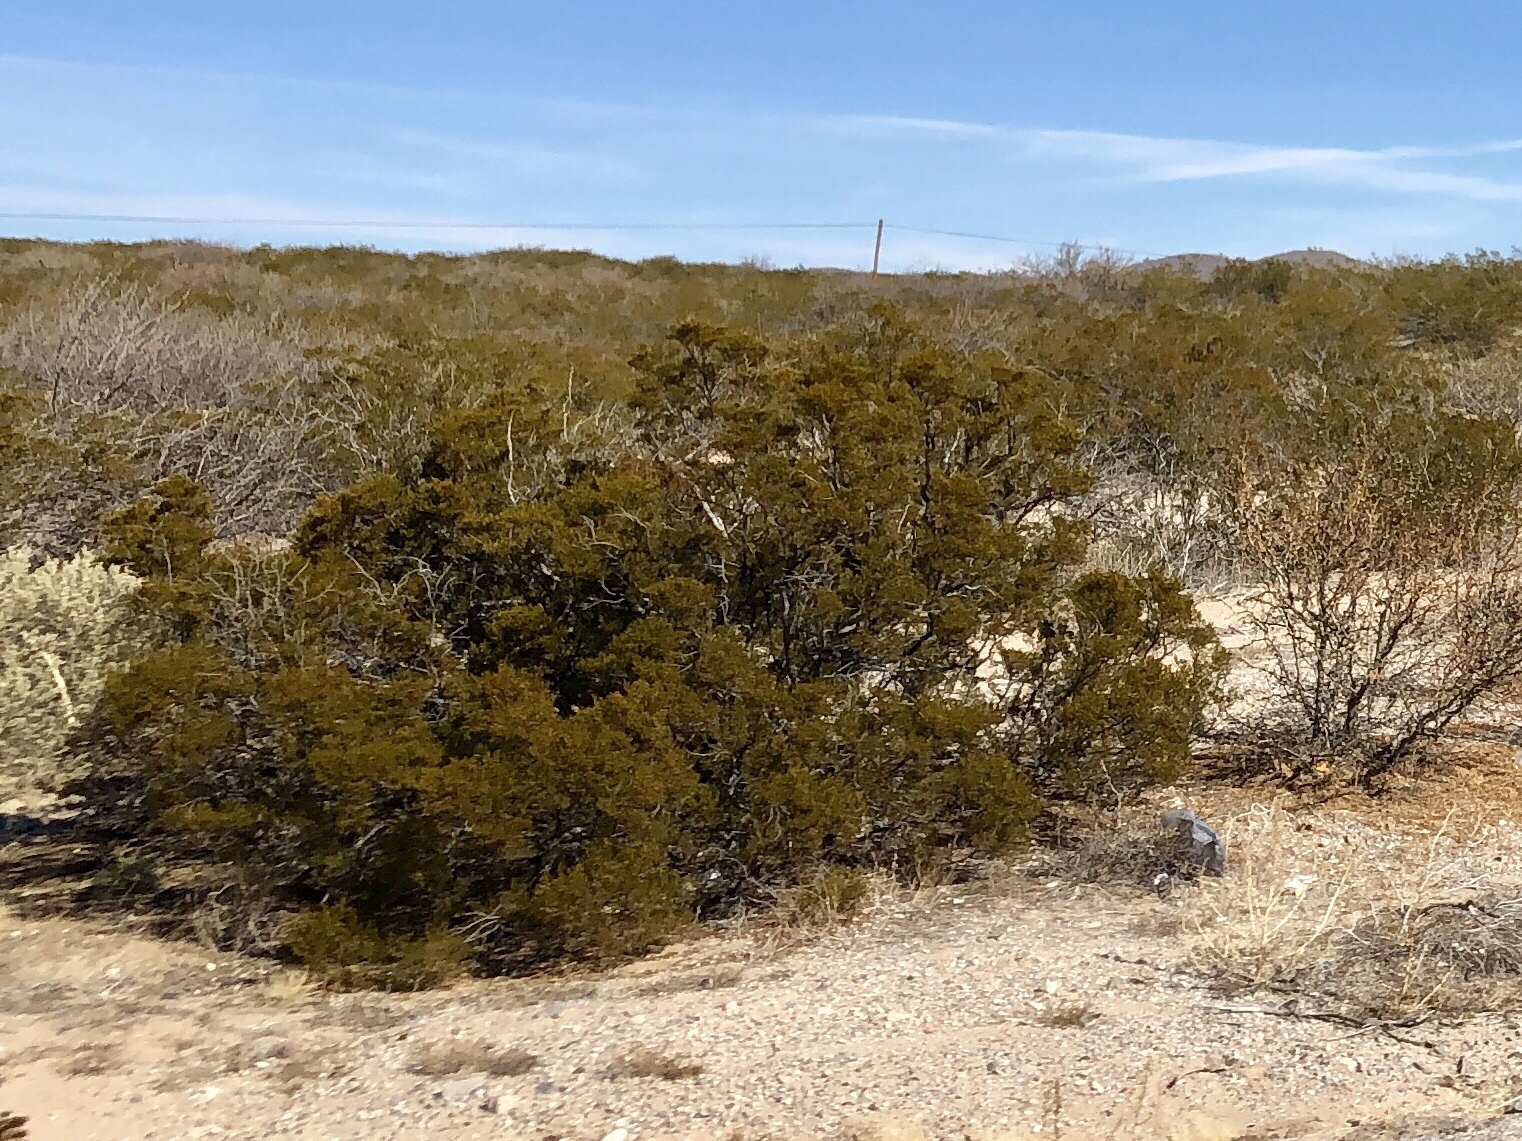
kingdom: Plantae
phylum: Tracheophyta
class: Magnoliopsida
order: Zygophyllales
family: Zygophyllaceae
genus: Larrea
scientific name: Larrea tridentata
